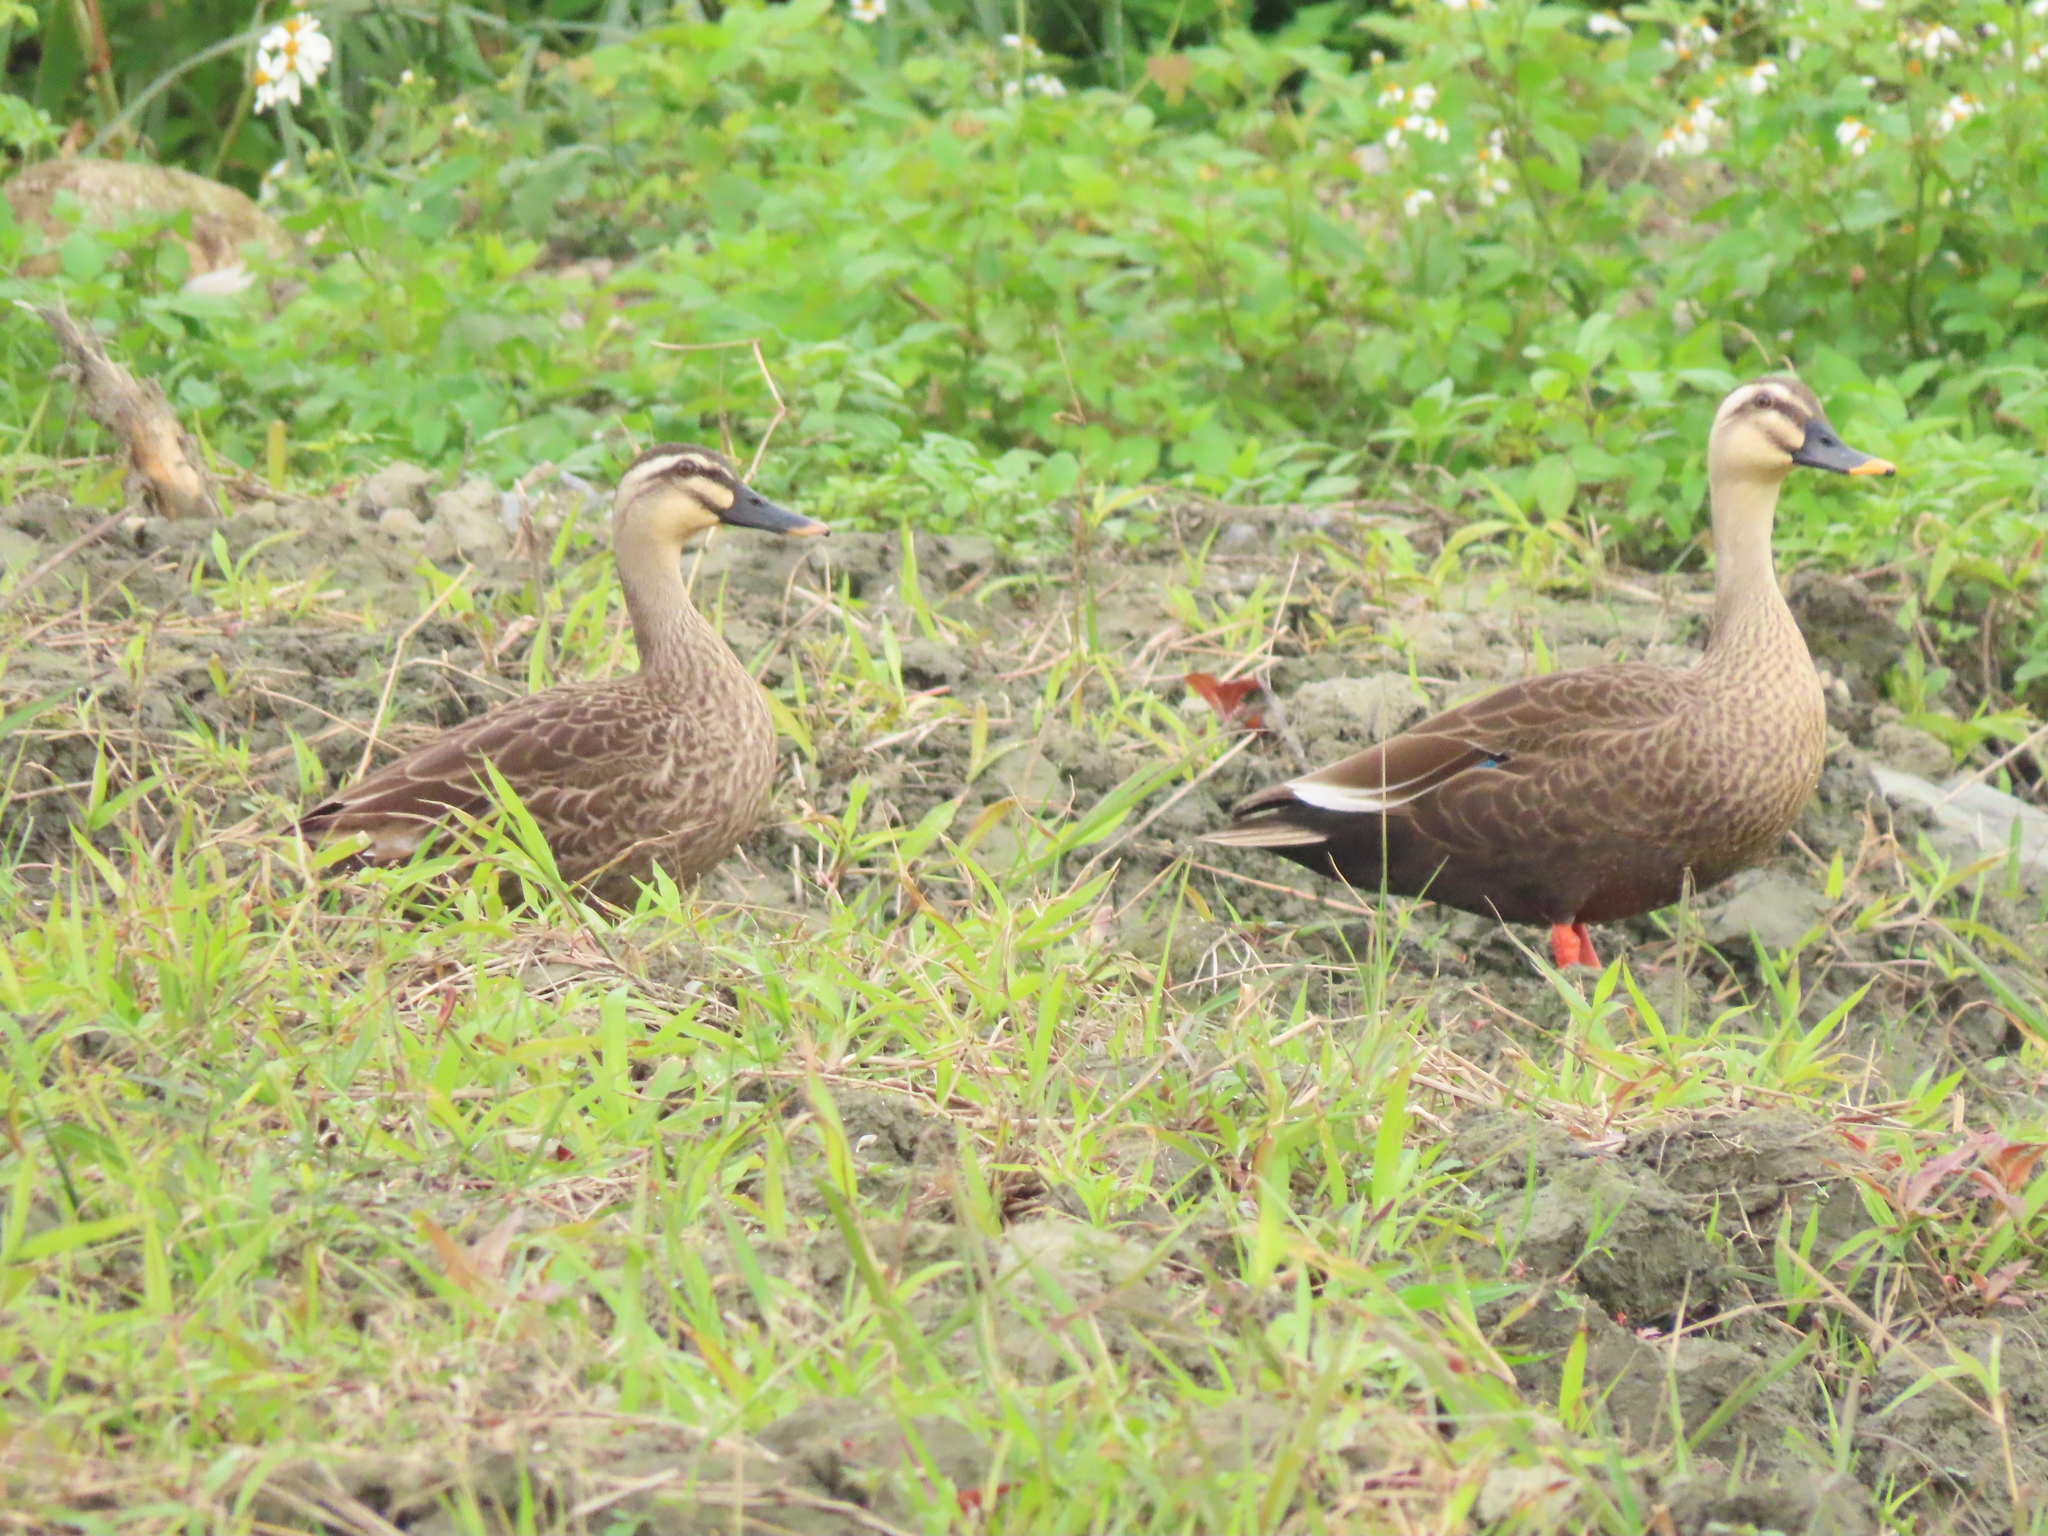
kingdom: Animalia
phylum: Chordata
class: Aves
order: Anseriformes
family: Anatidae
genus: Anas
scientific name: Anas zonorhyncha
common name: Eastern spot-billed duck
